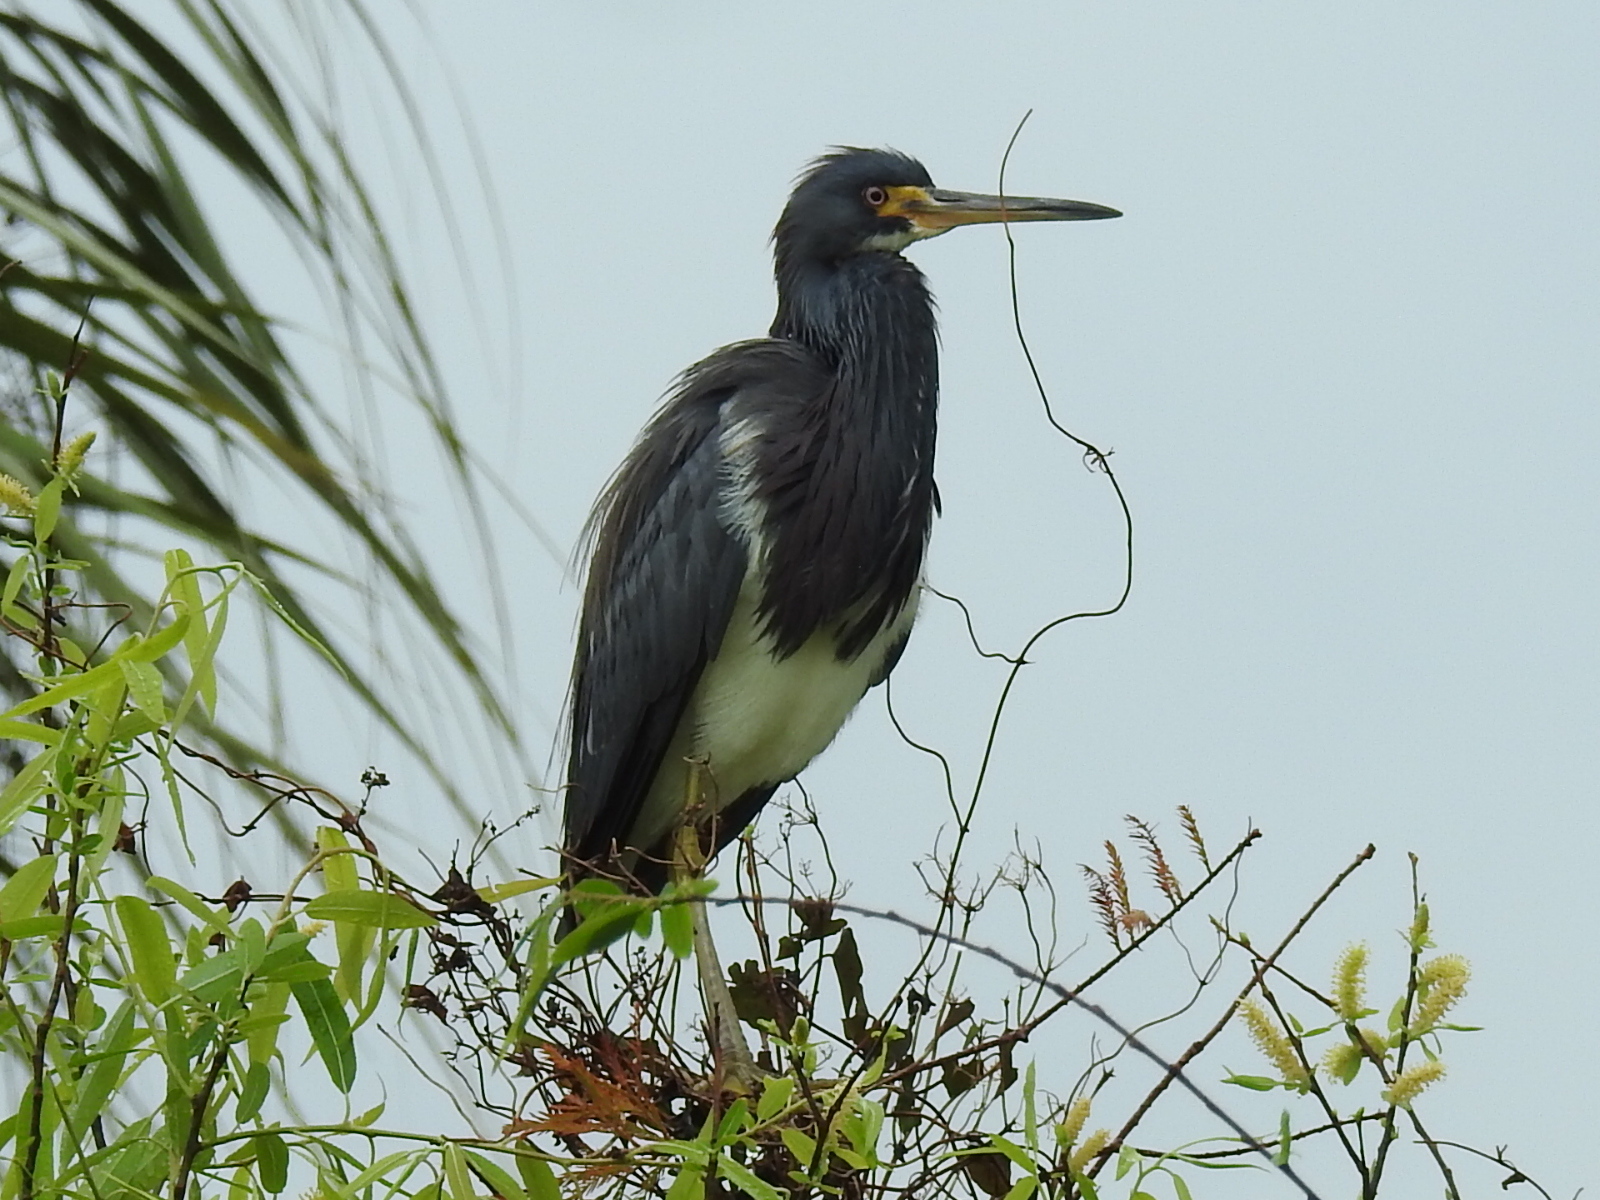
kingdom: Animalia
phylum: Chordata
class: Aves
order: Pelecaniformes
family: Ardeidae
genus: Egretta
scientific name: Egretta tricolor
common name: Tricolored heron
